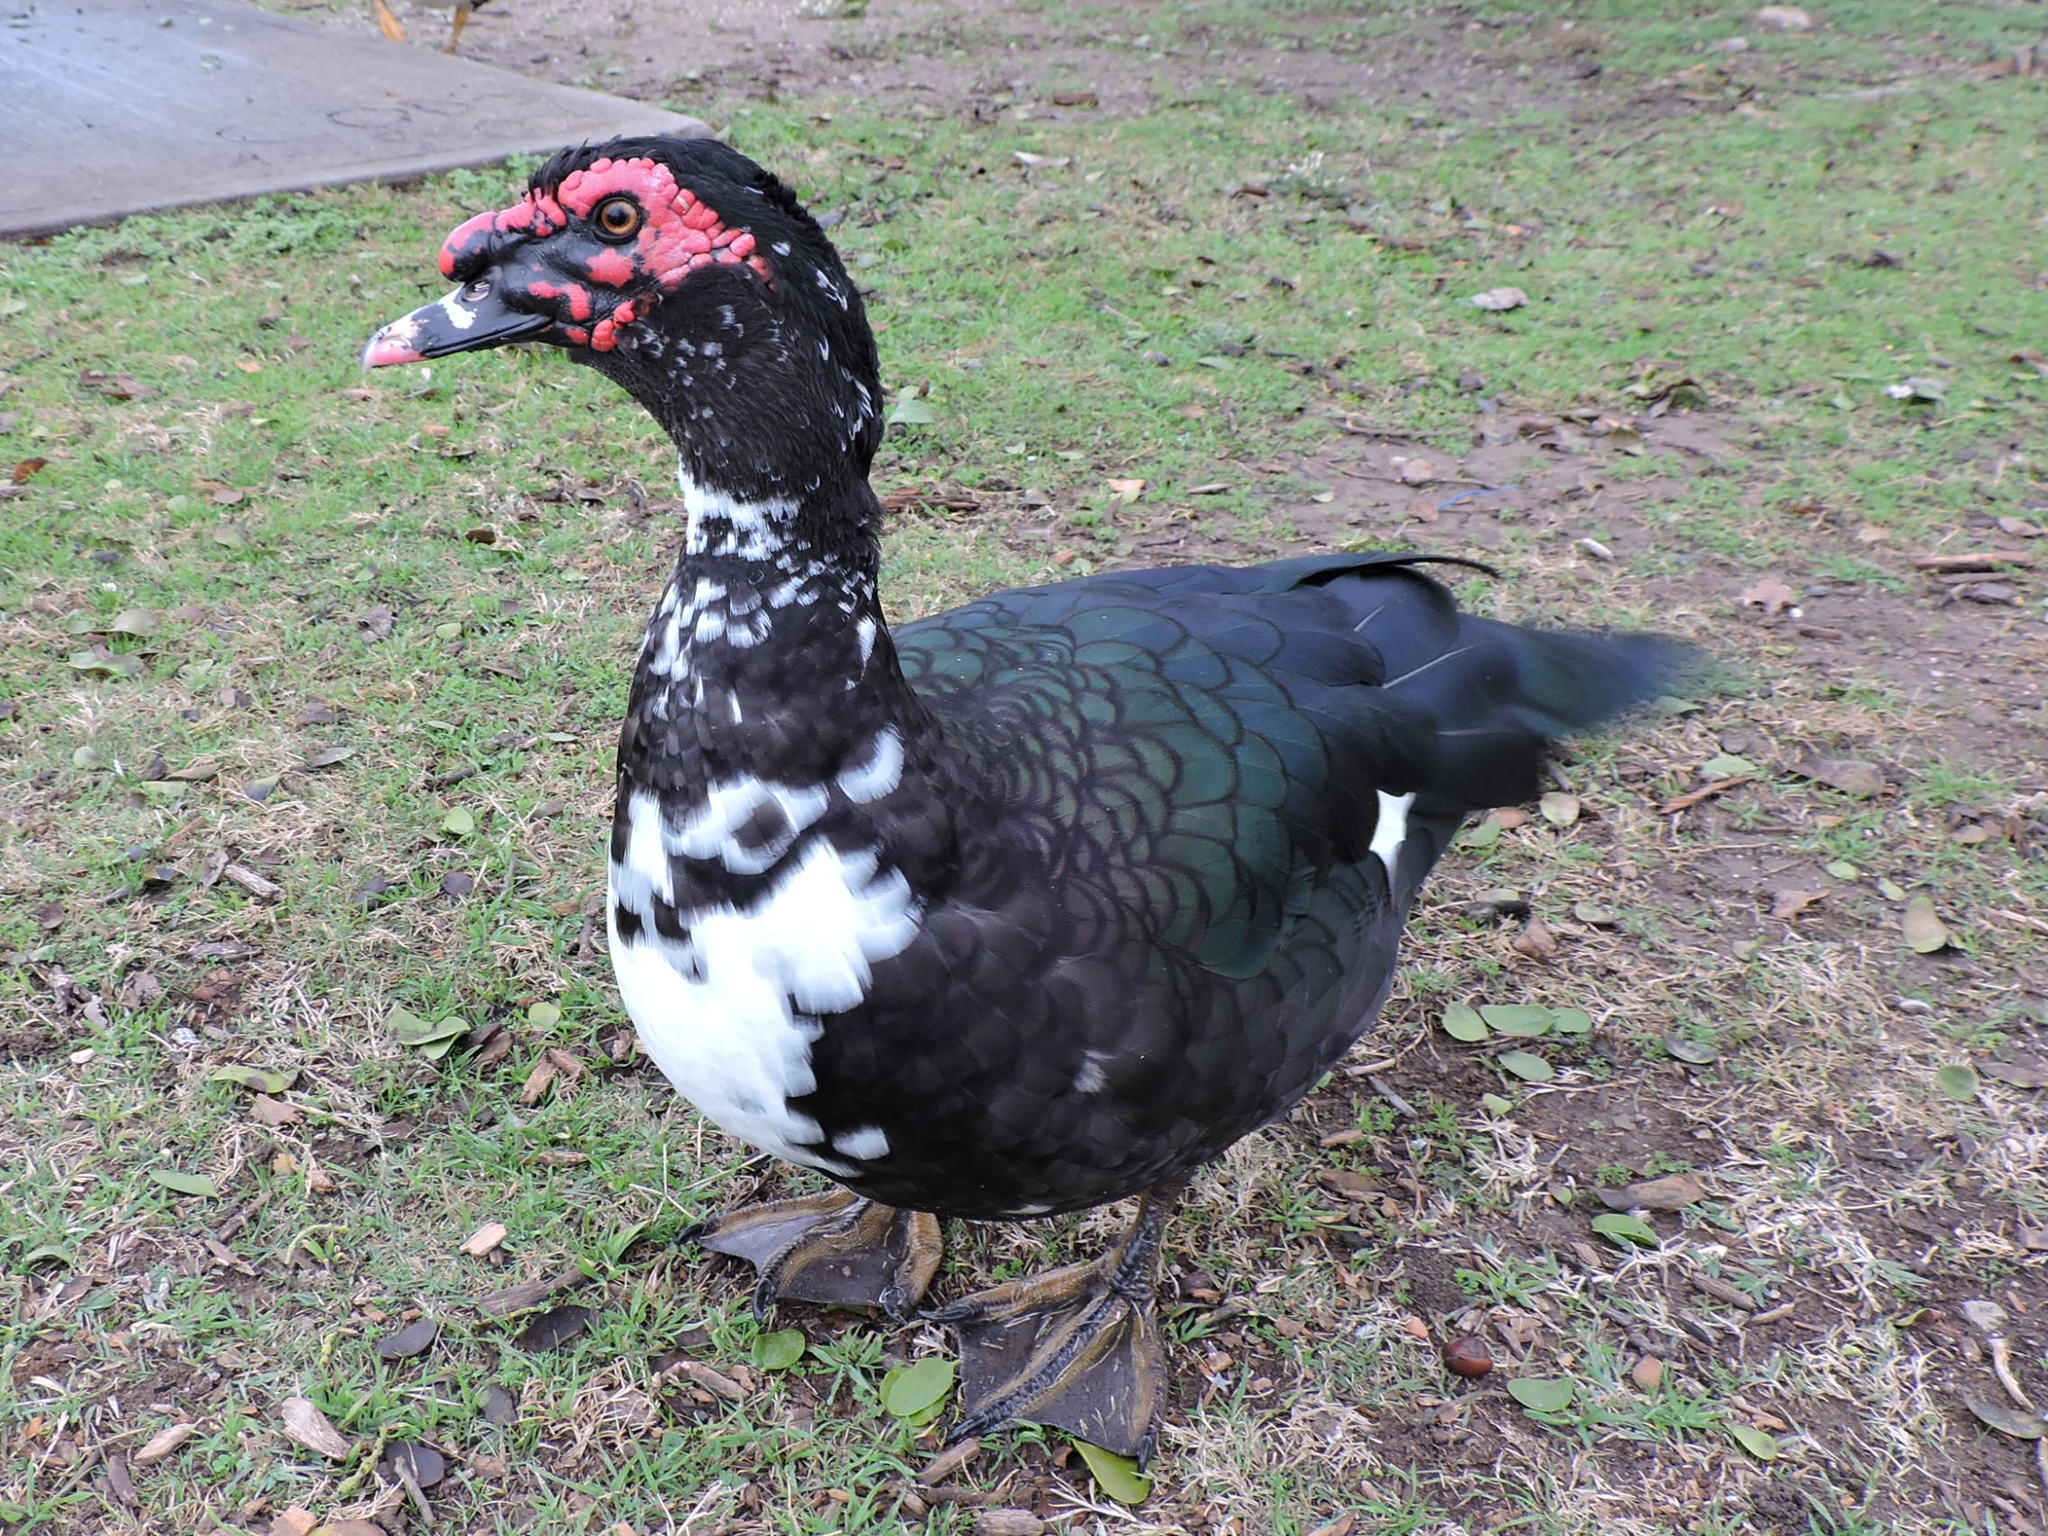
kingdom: Animalia
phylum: Chordata
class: Aves
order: Anseriformes
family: Anatidae
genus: Cairina
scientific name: Cairina moschata
